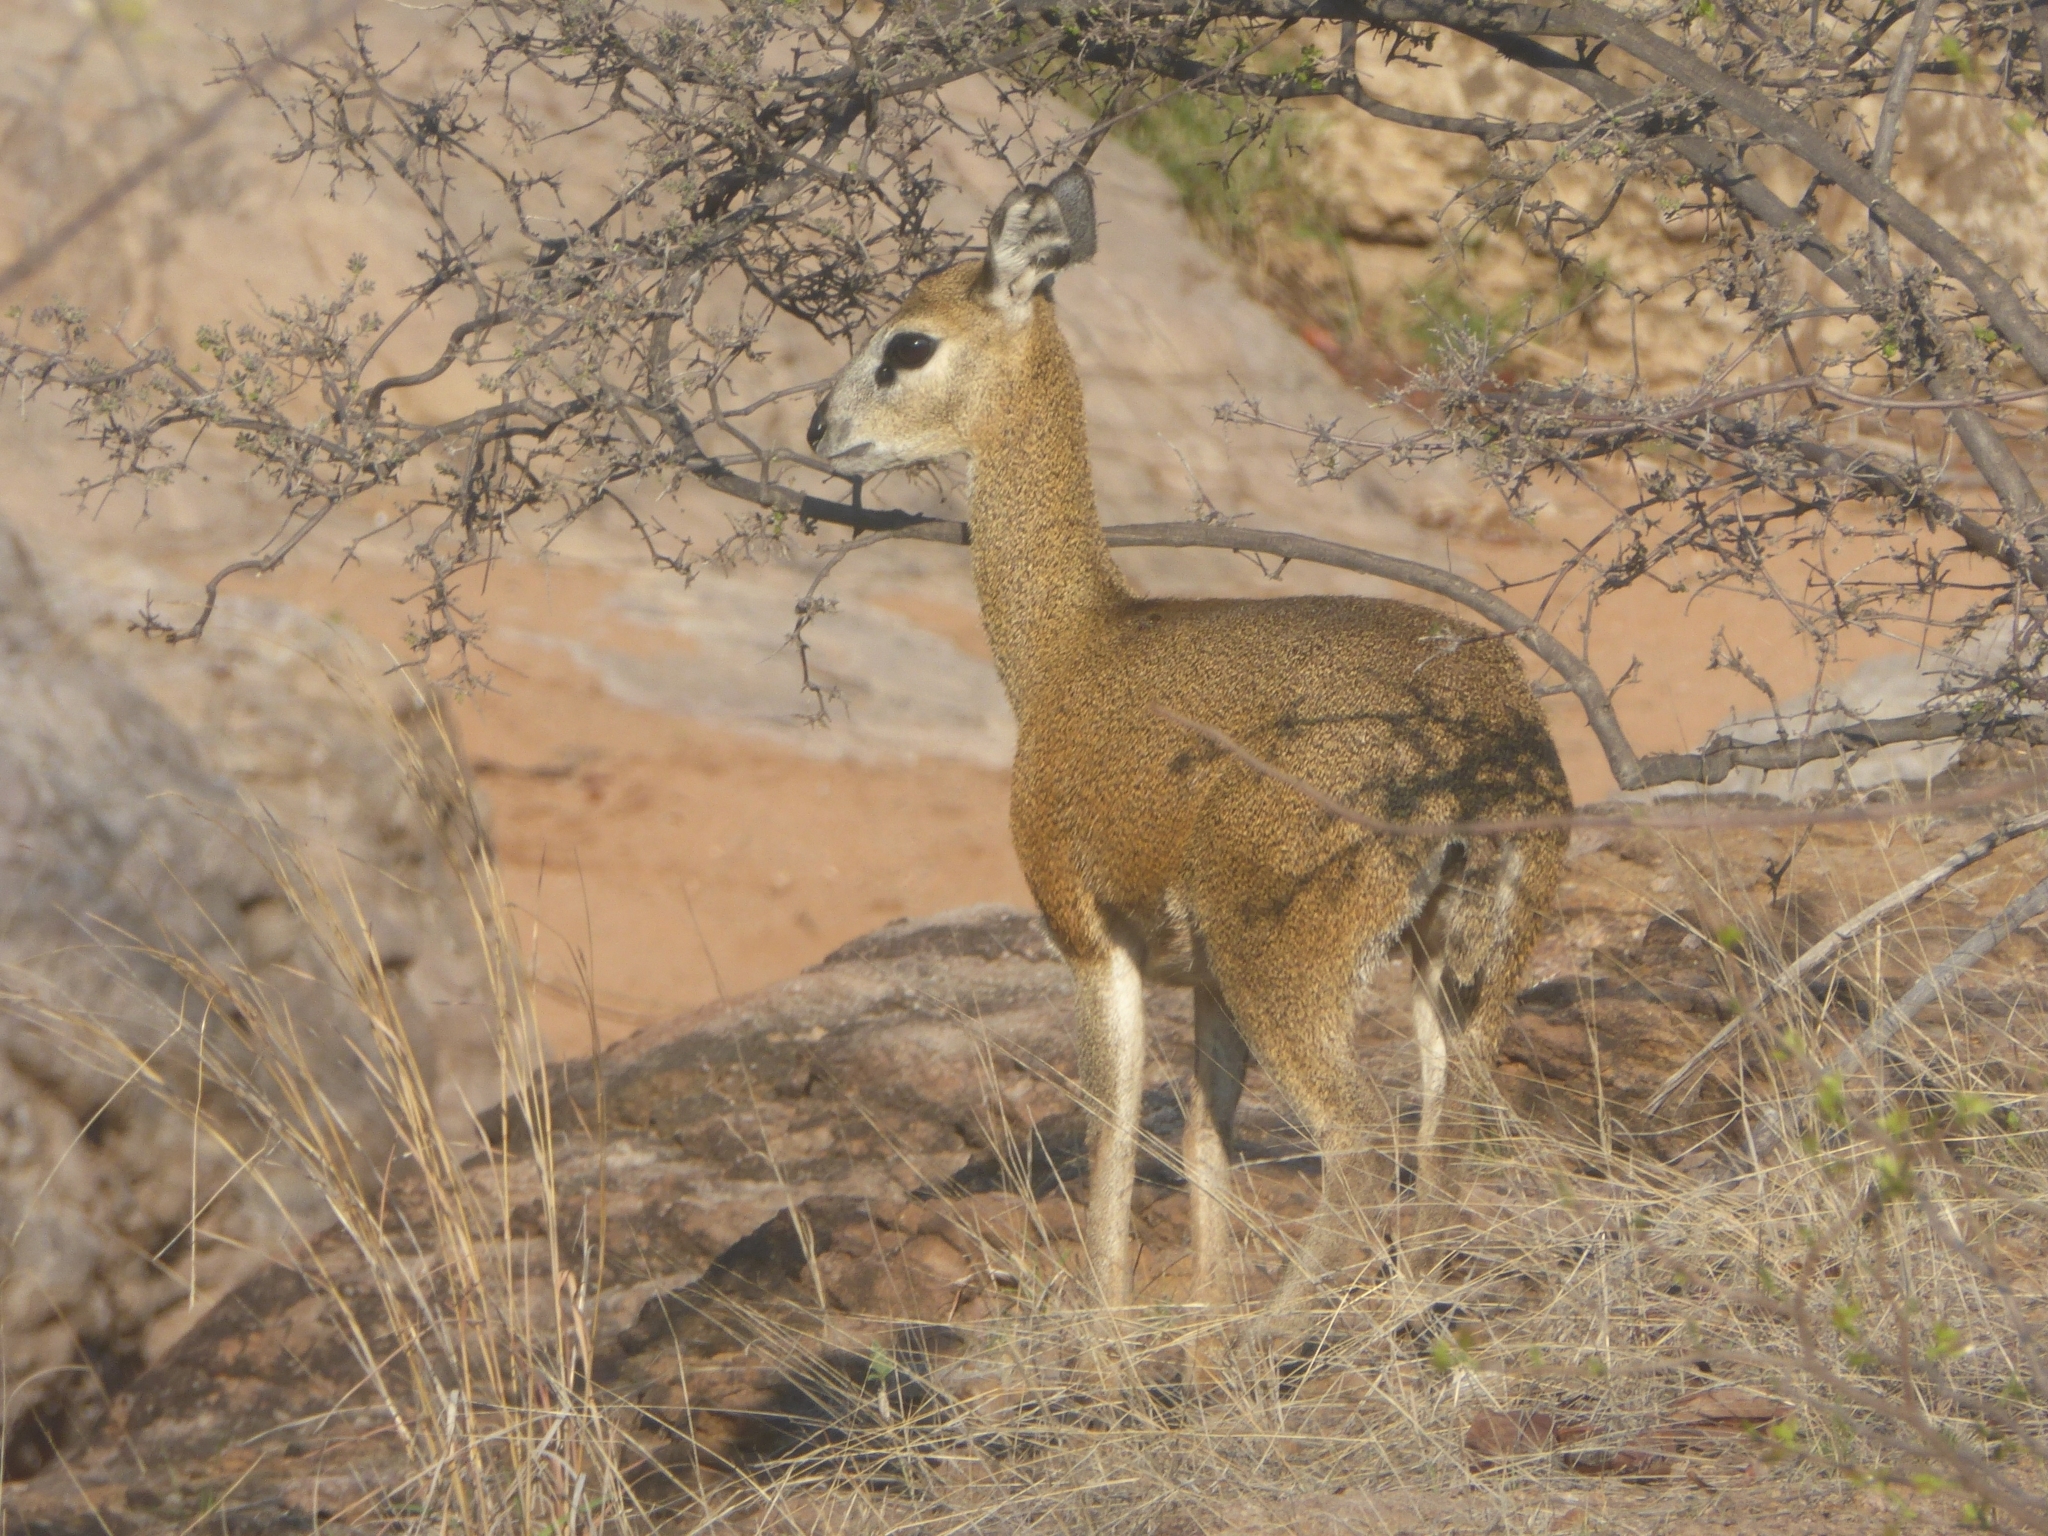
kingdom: Animalia
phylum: Chordata
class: Mammalia
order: Artiodactyla
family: Bovidae
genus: Oreotragus
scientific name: Oreotragus oreotragus
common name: Klipspringer
